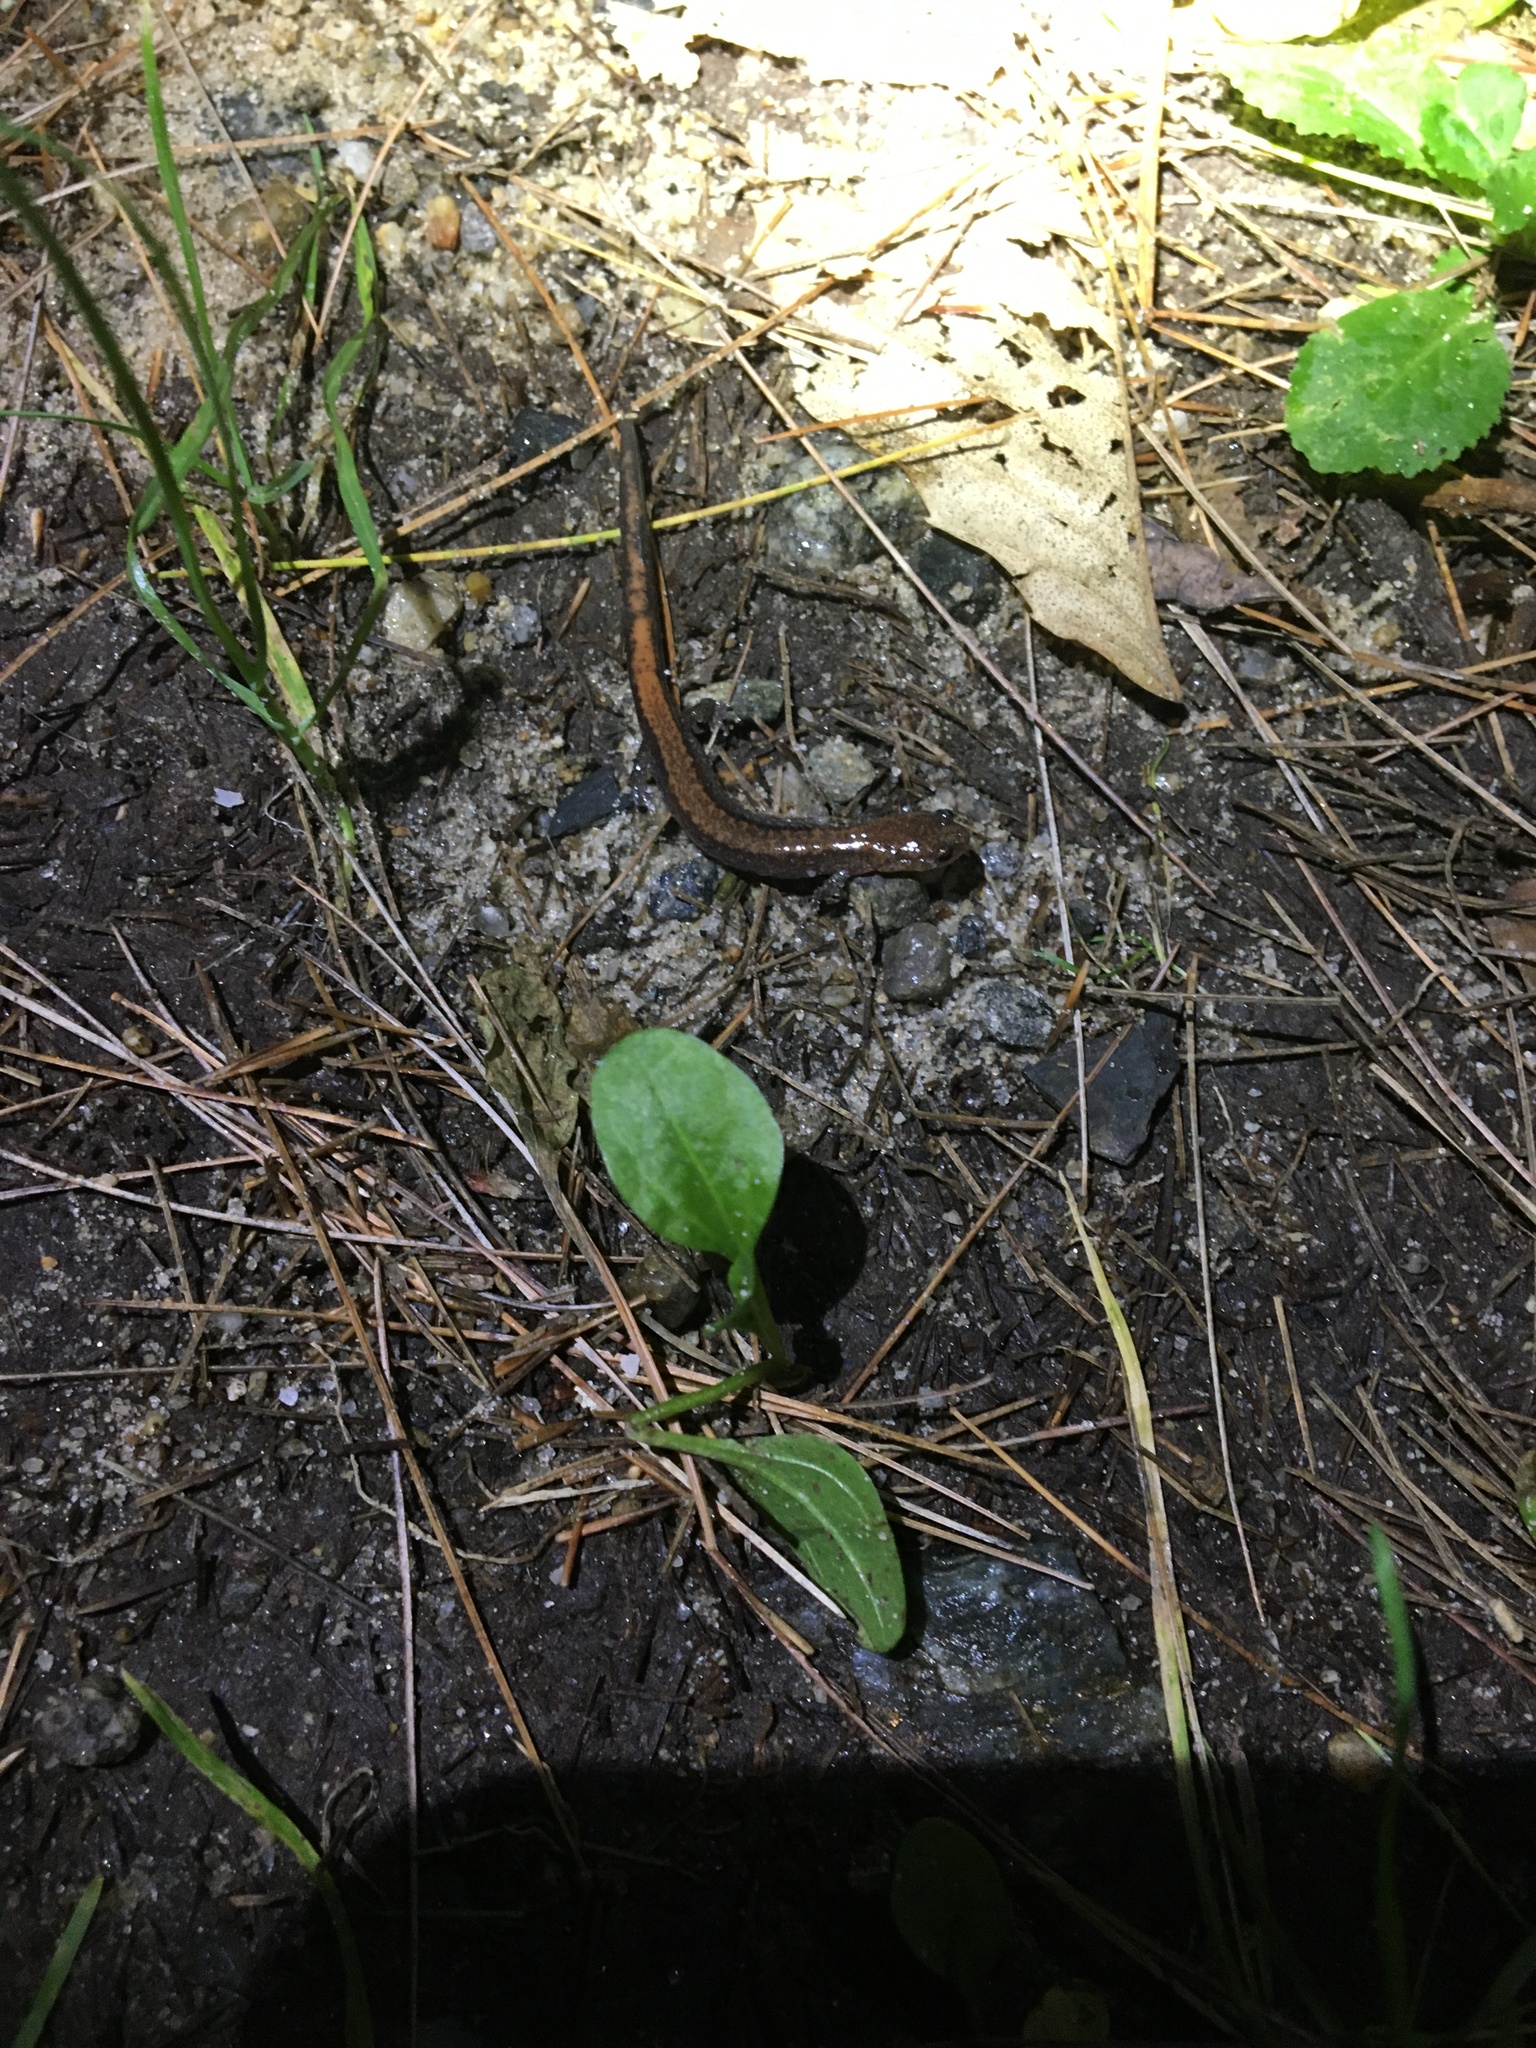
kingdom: Animalia
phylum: Chordata
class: Amphibia
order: Caudata
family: Plethodontidae
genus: Plethodon
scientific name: Plethodon cinereus
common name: Redback salamander
